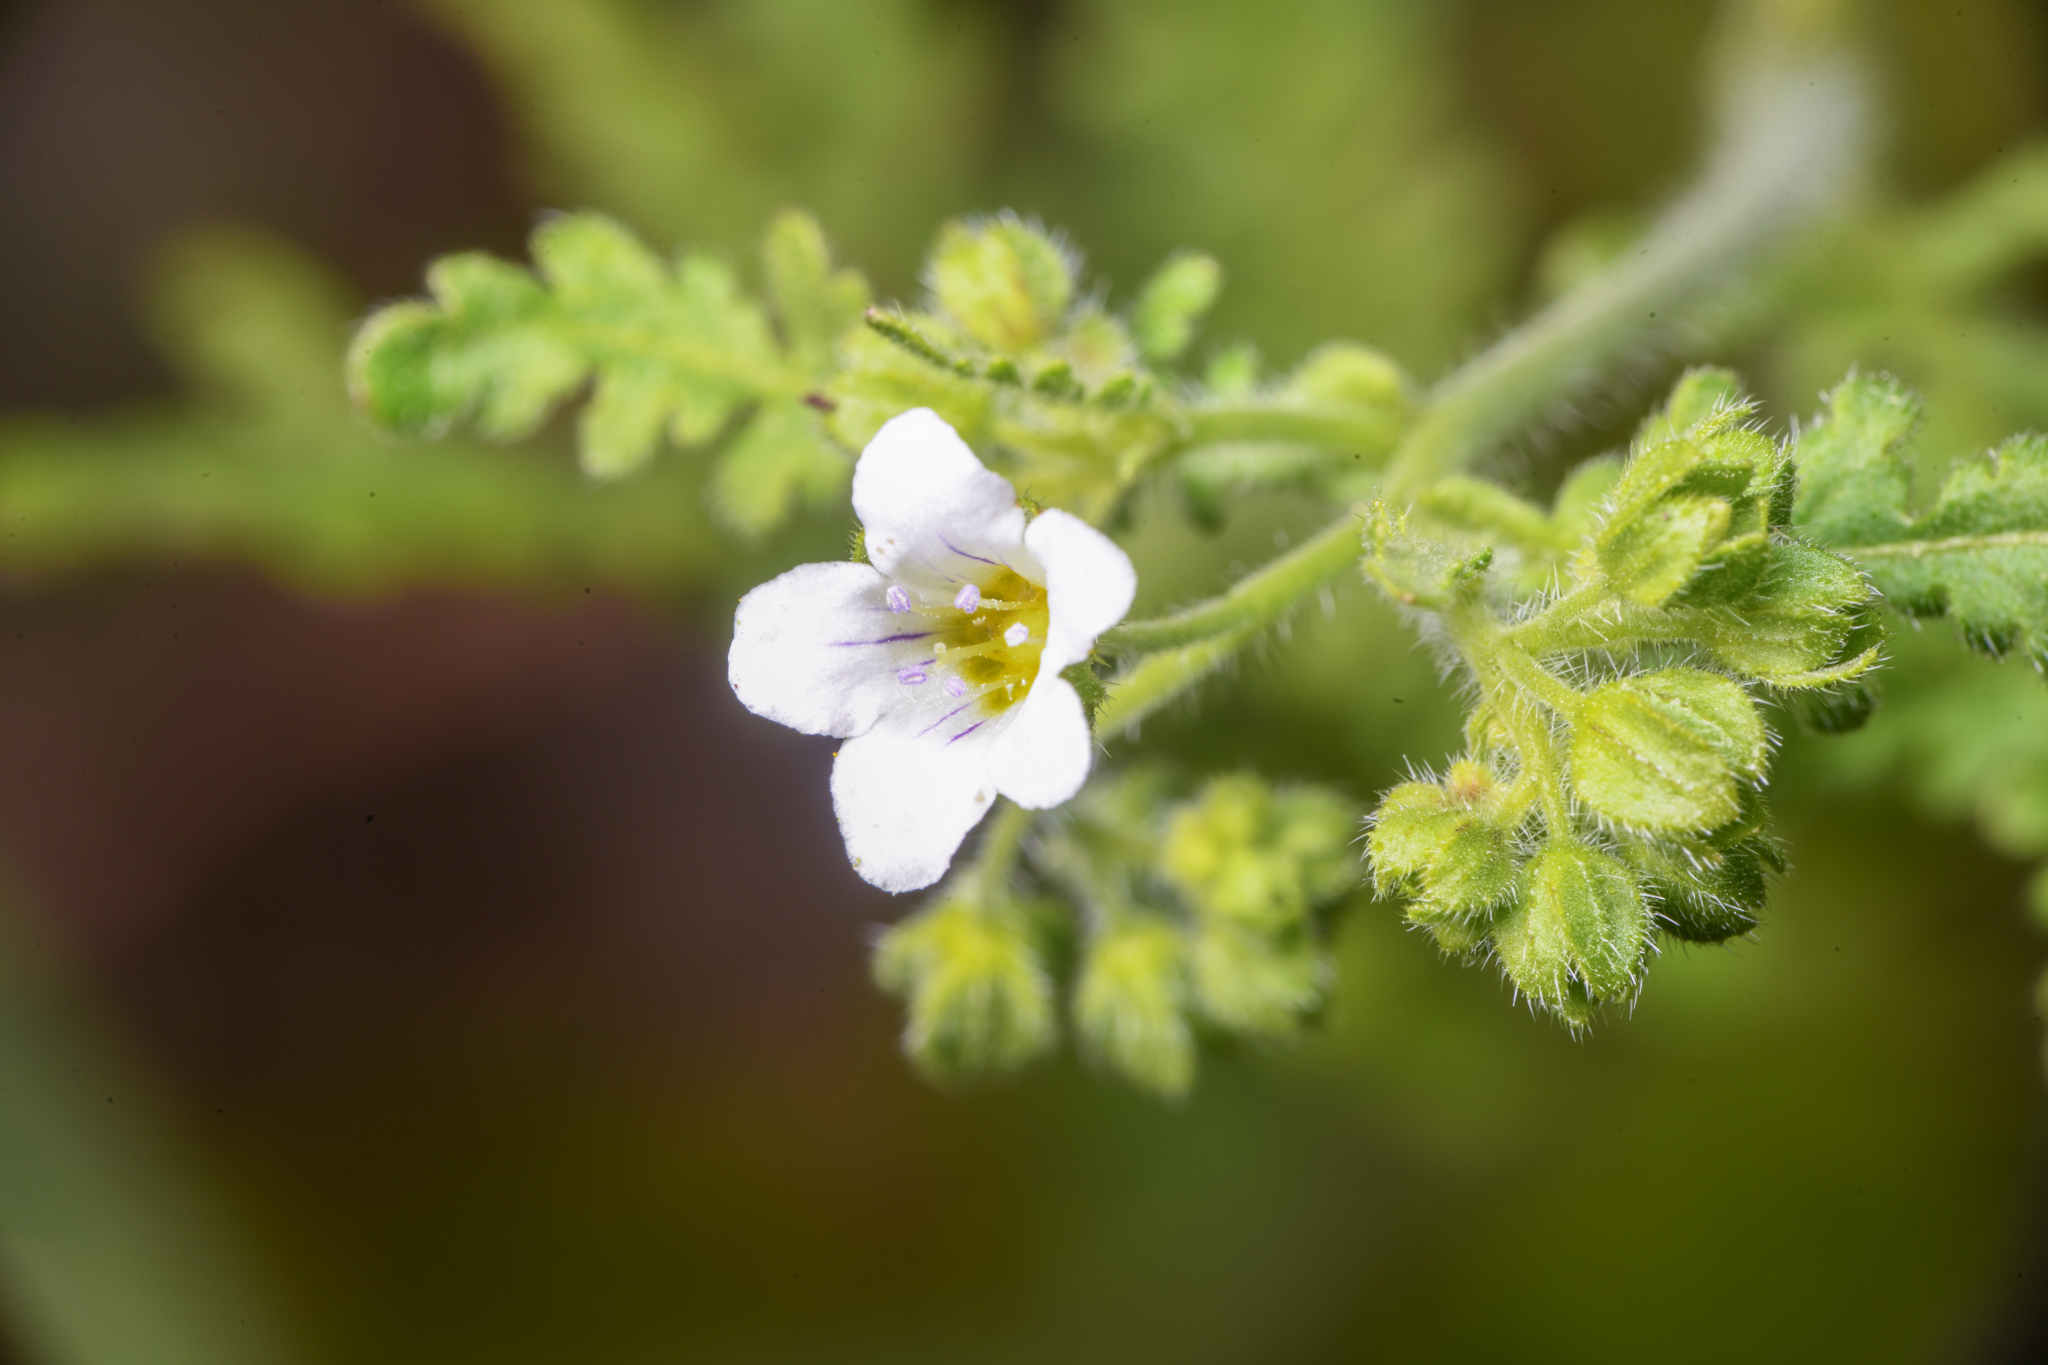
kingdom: Plantae
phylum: Tracheophyta
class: Magnoliopsida
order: Boraginales
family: Hydrophyllaceae
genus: Eucrypta
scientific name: Eucrypta chrysanthemifolia
